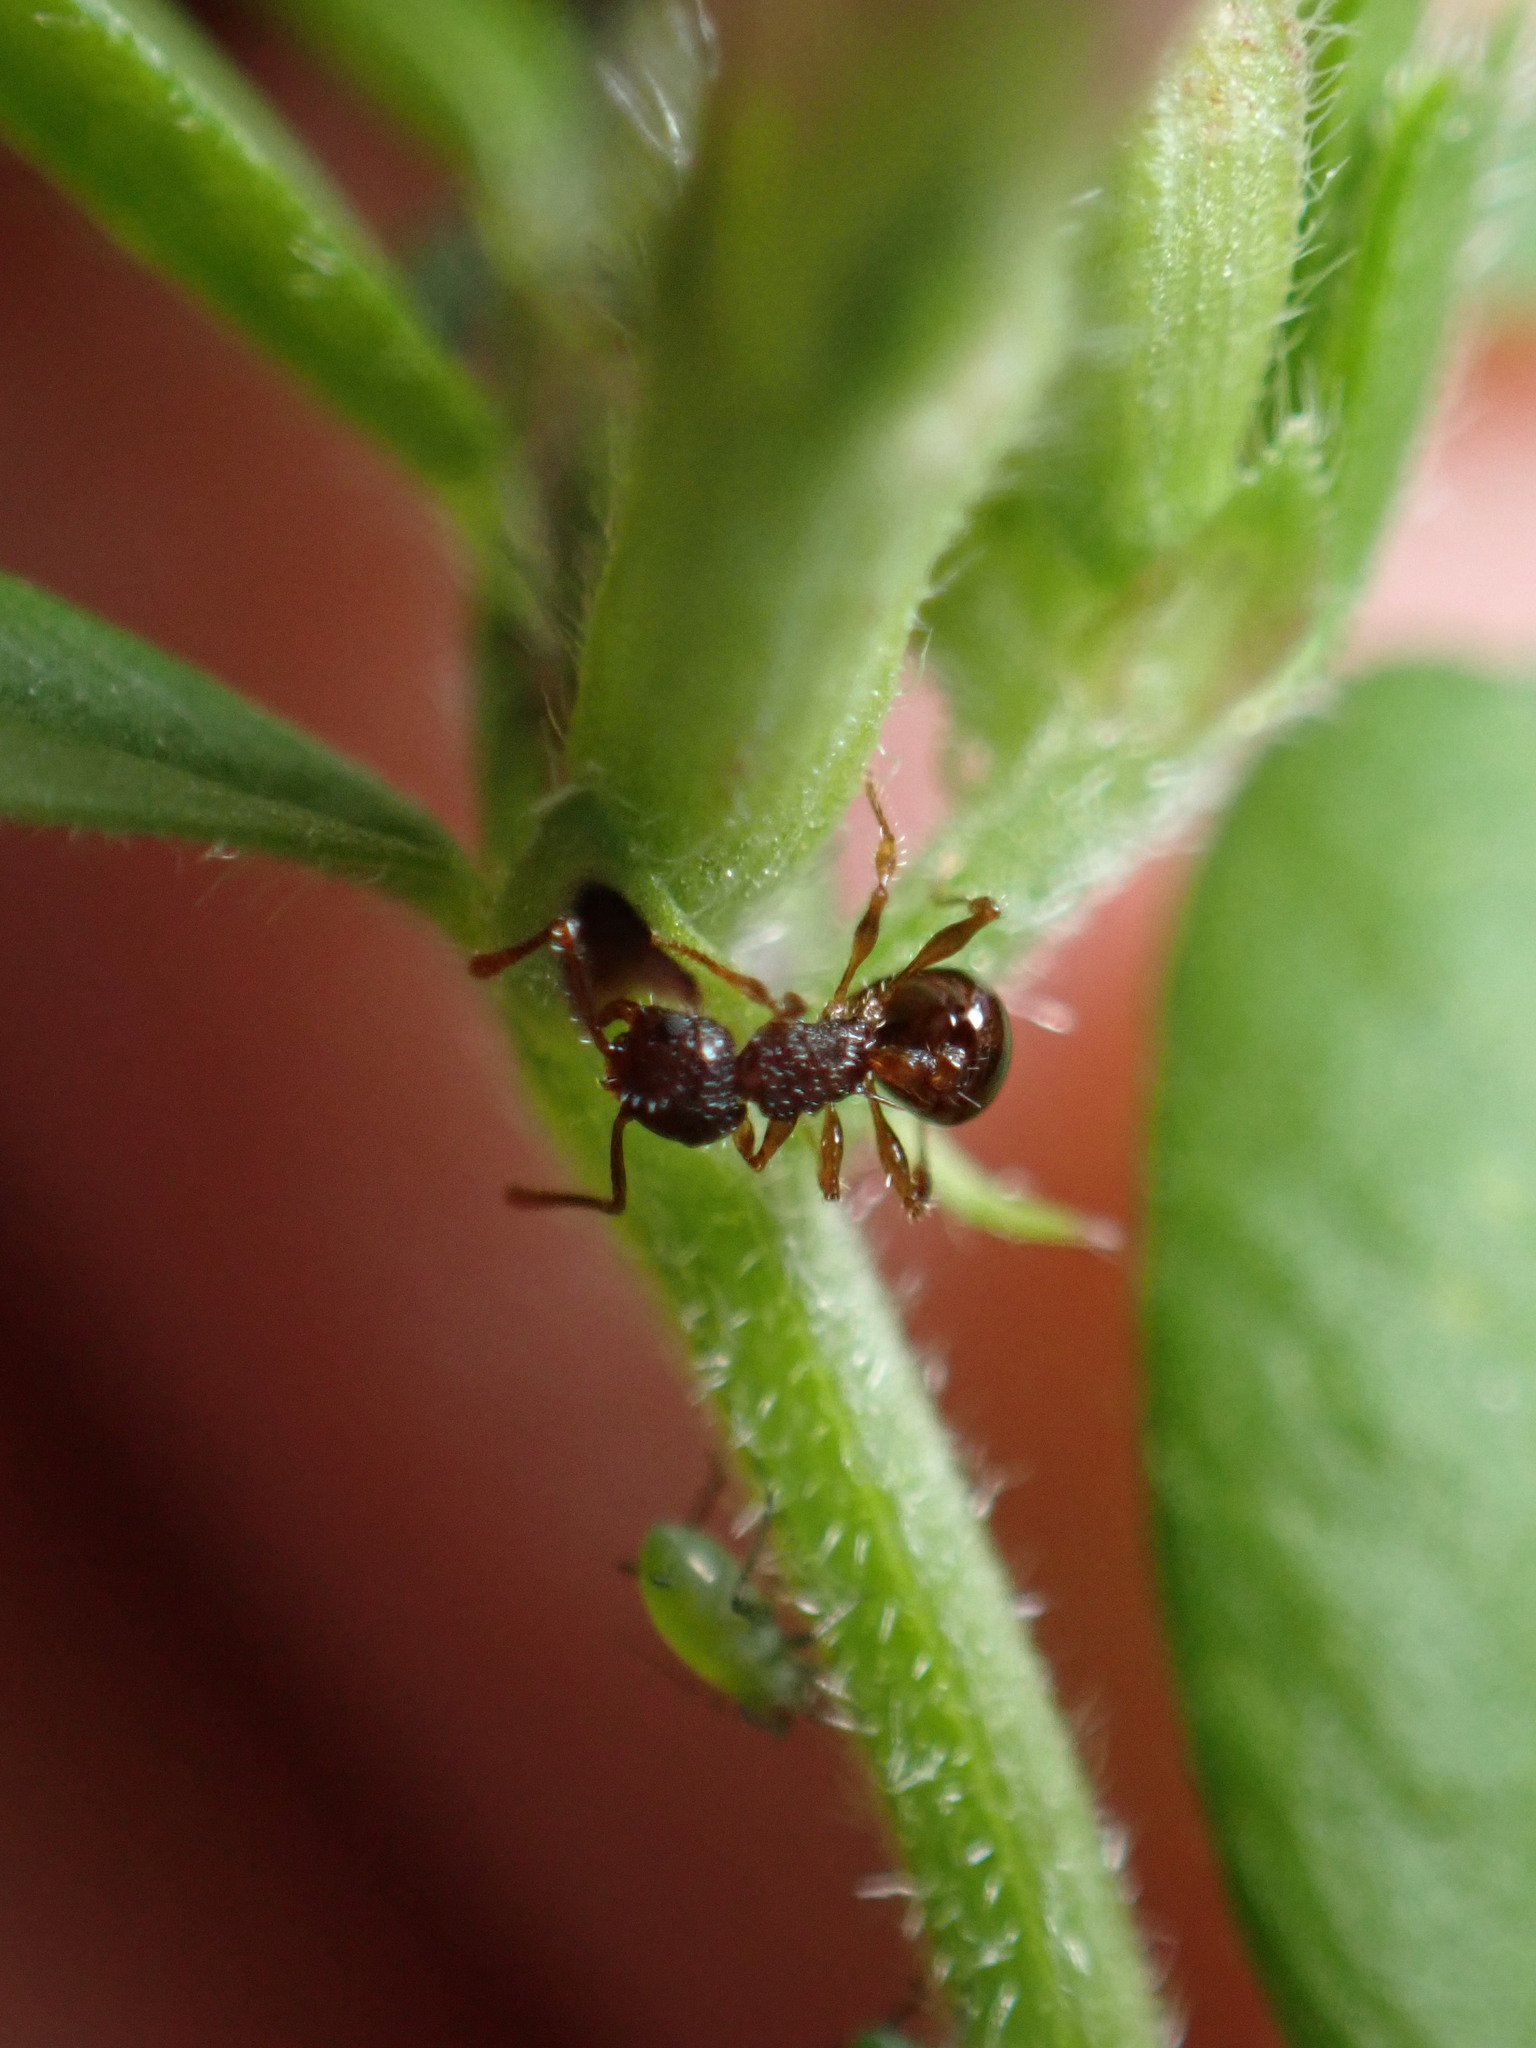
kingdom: Animalia
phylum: Arthropoda
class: Insecta
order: Hymenoptera
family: Formicidae
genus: Pristomyrmex
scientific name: Pristomyrmex punctatus
